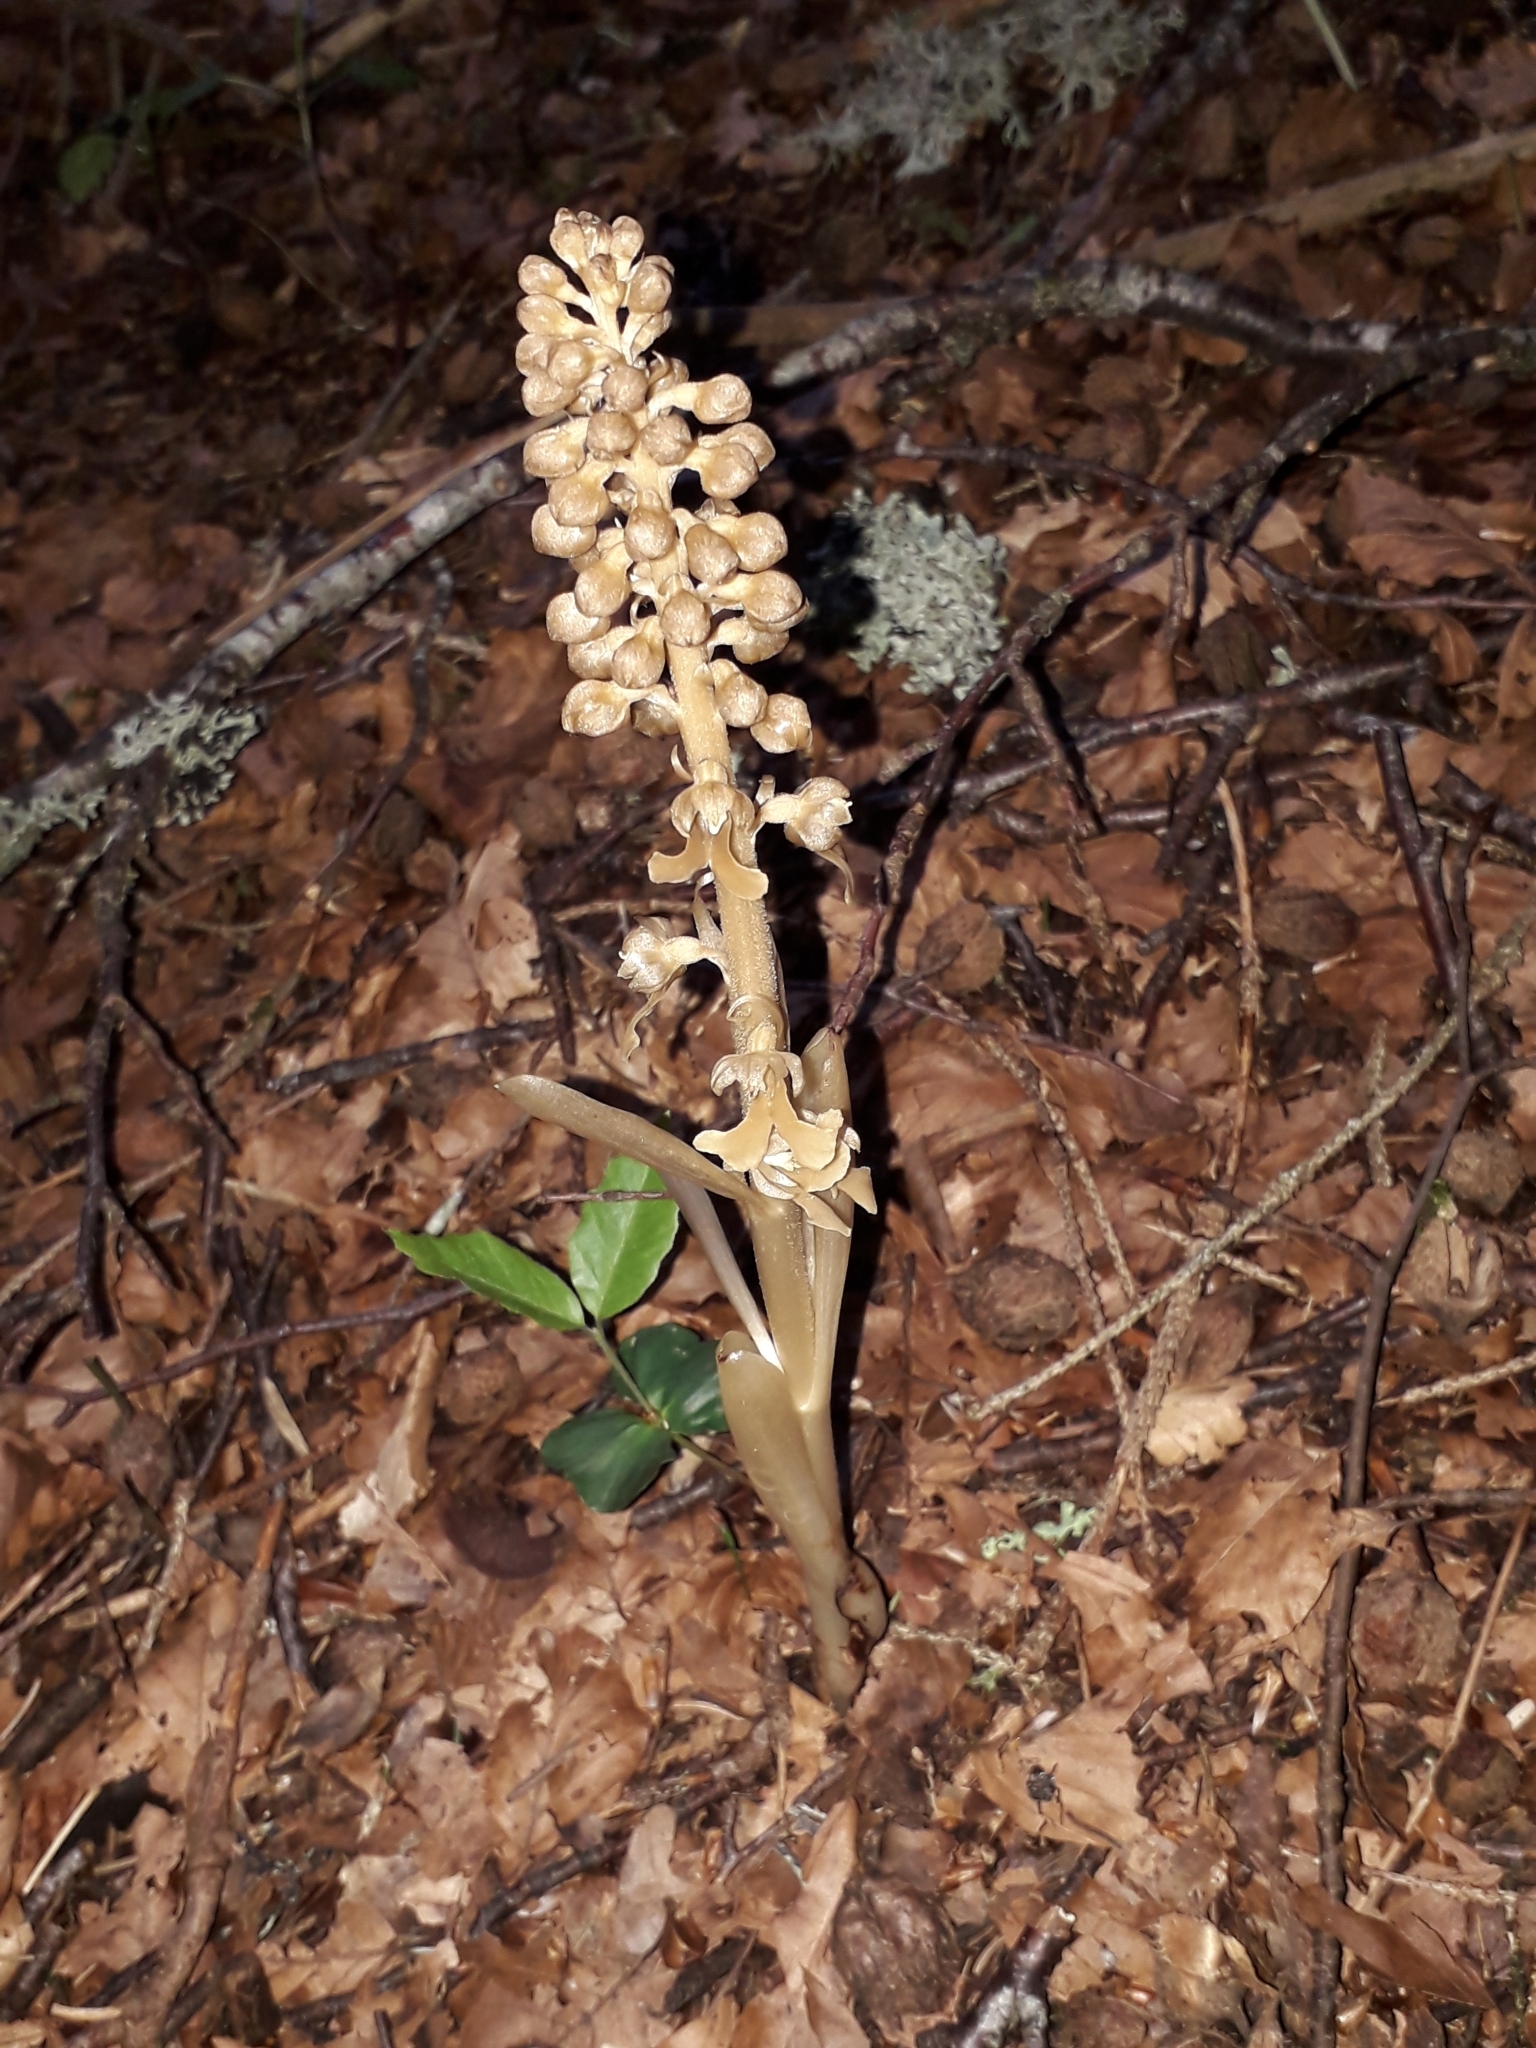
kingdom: Plantae
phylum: Tracheophyta
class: Liliopsida
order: Asparagales
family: Orchidaceae
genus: Neottia
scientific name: Neottia nidus-avis
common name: Bird's-nest orchid
